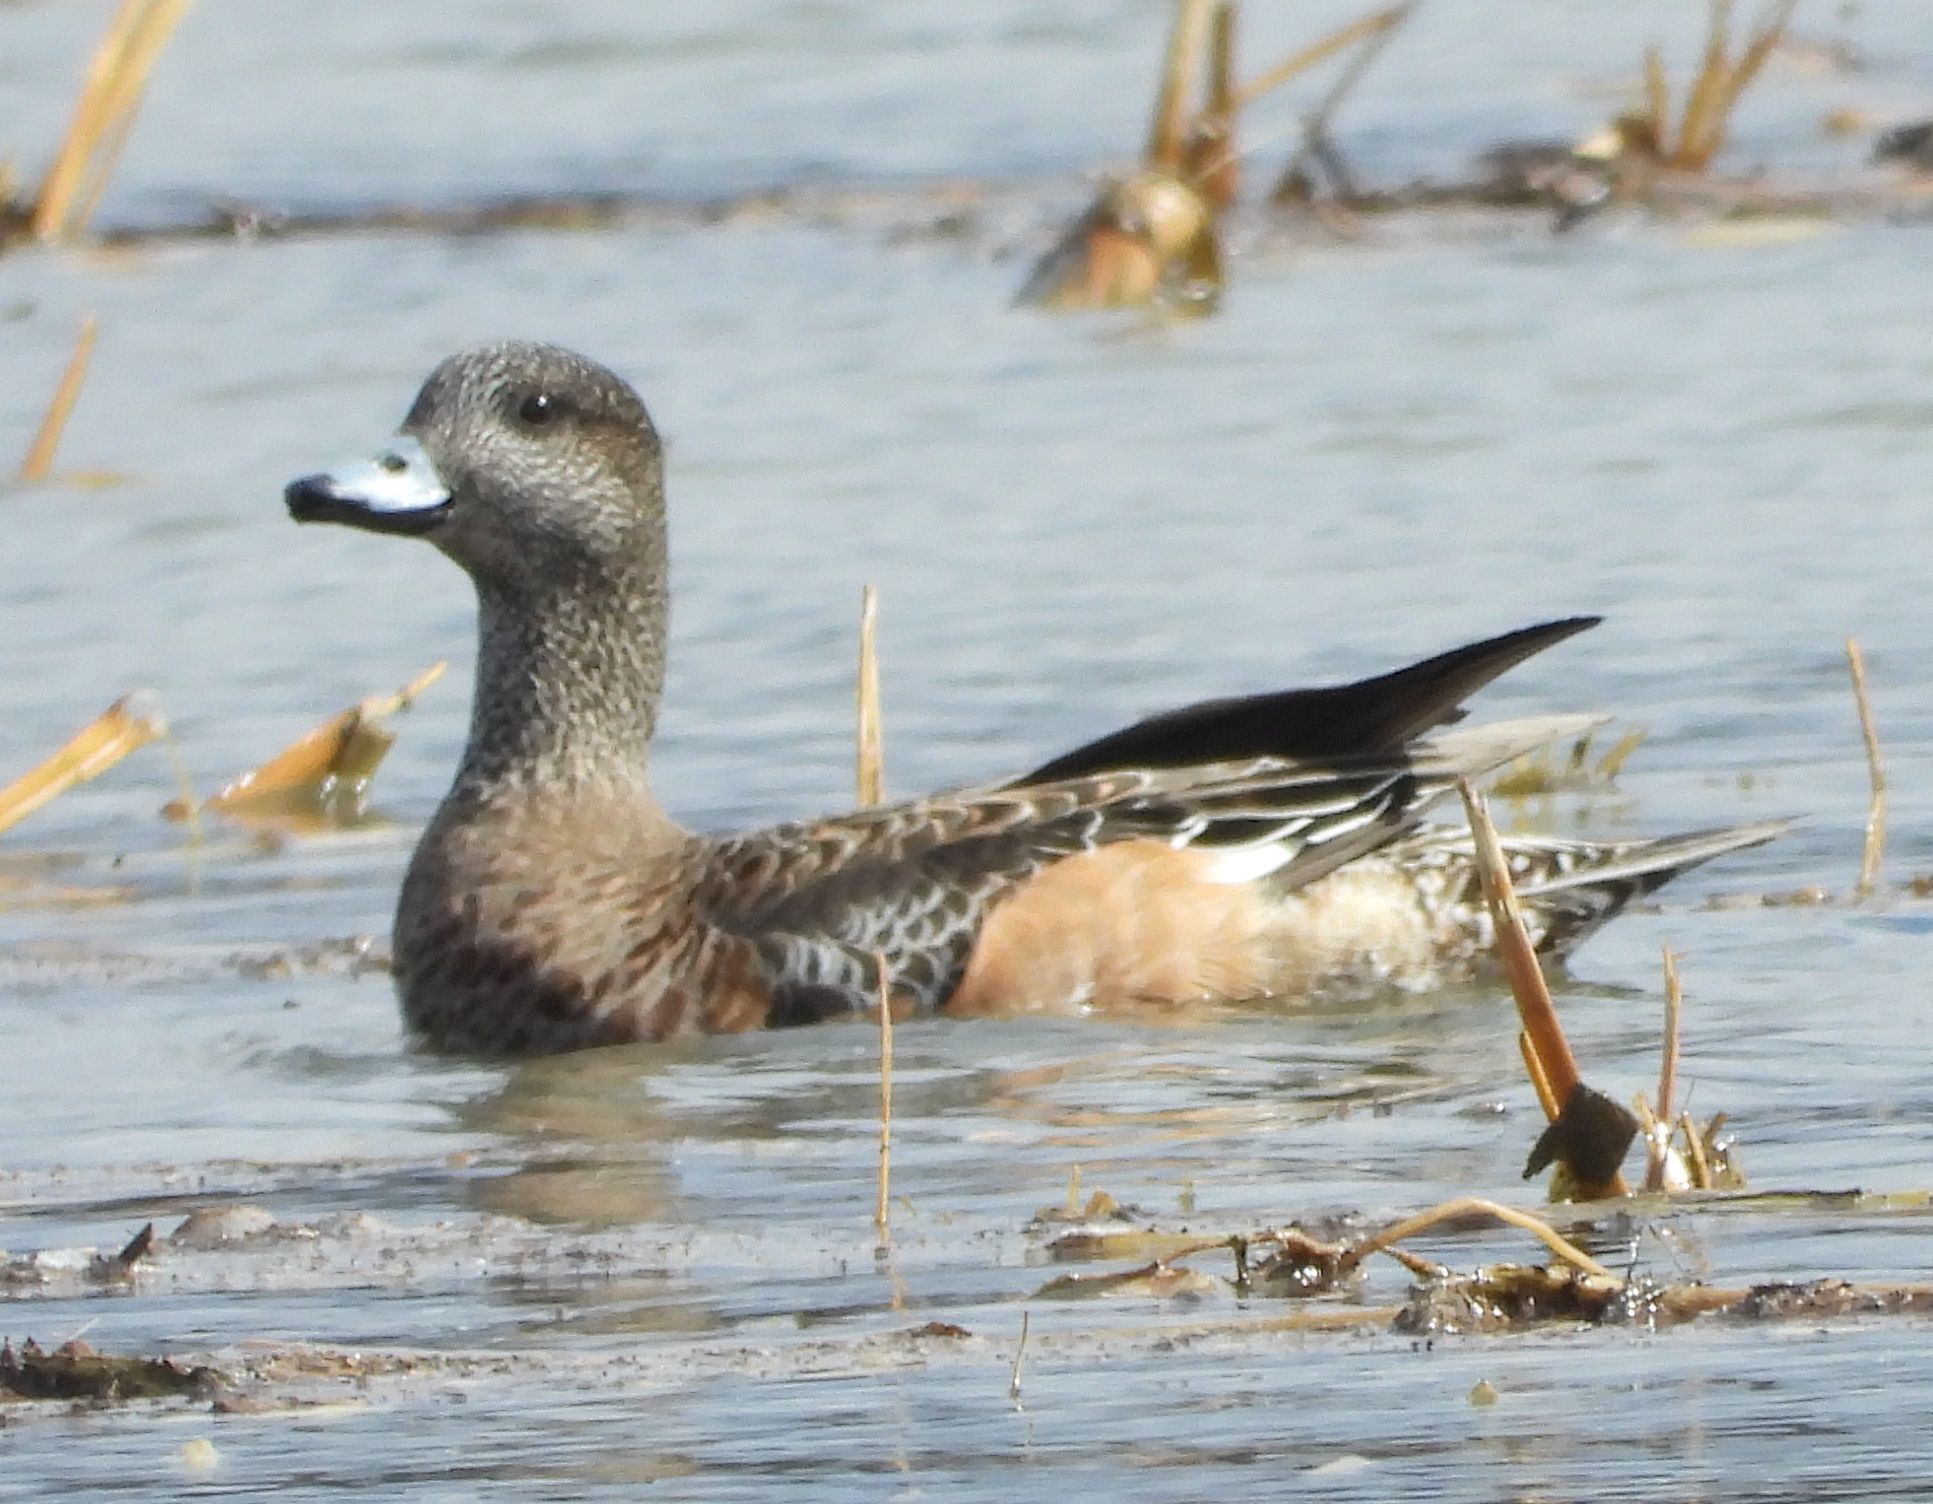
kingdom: Animalia
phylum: Chordata
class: Aves
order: Anseriformes
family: Anatidae
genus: Mareca
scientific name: Mareca americana
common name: American wigeon
